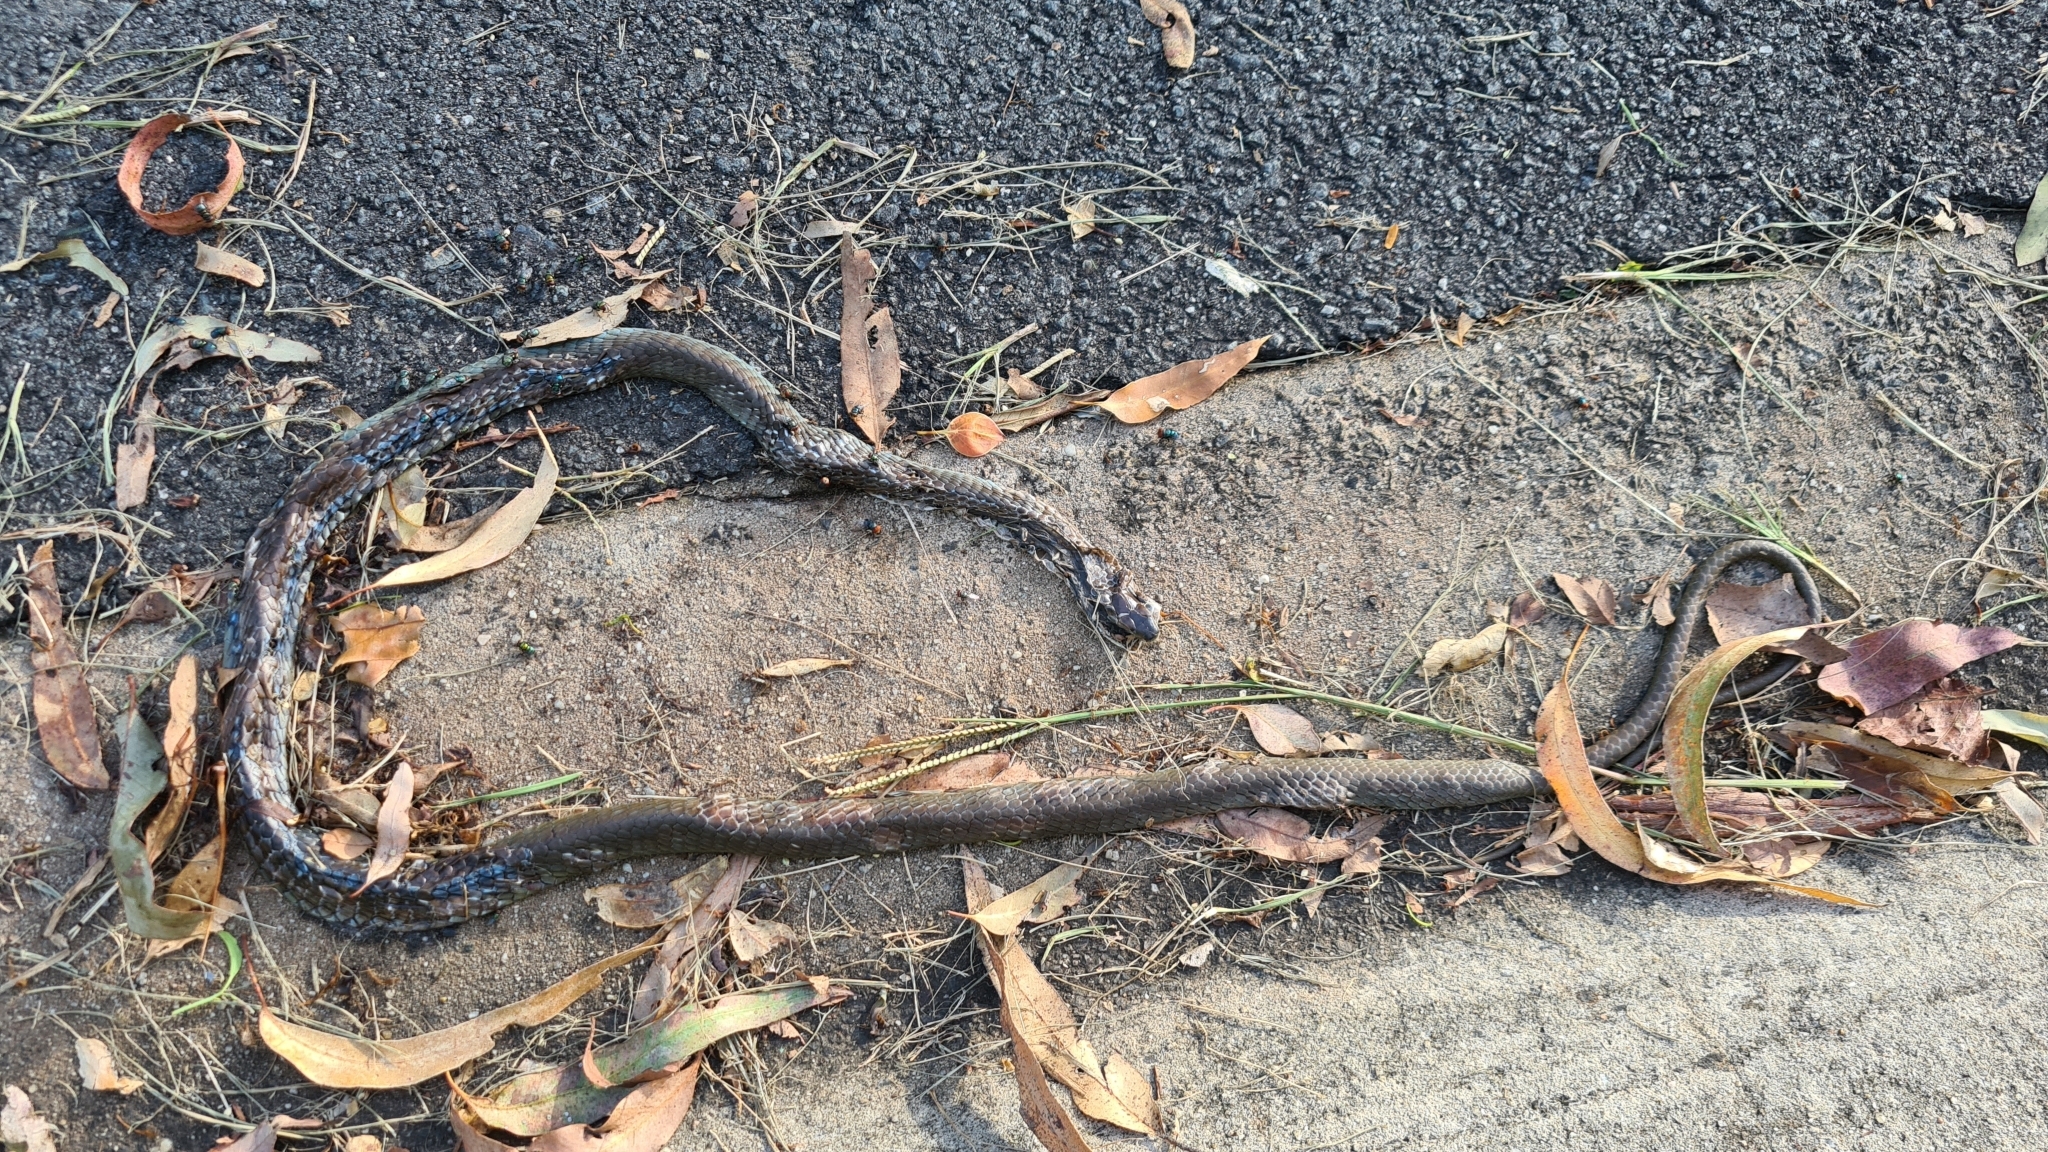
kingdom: Animalia
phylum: Chordata
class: Squamata
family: Colubridae
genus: Dendrelaphis
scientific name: Dendrelaphis punctulatus
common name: Common tree snake
